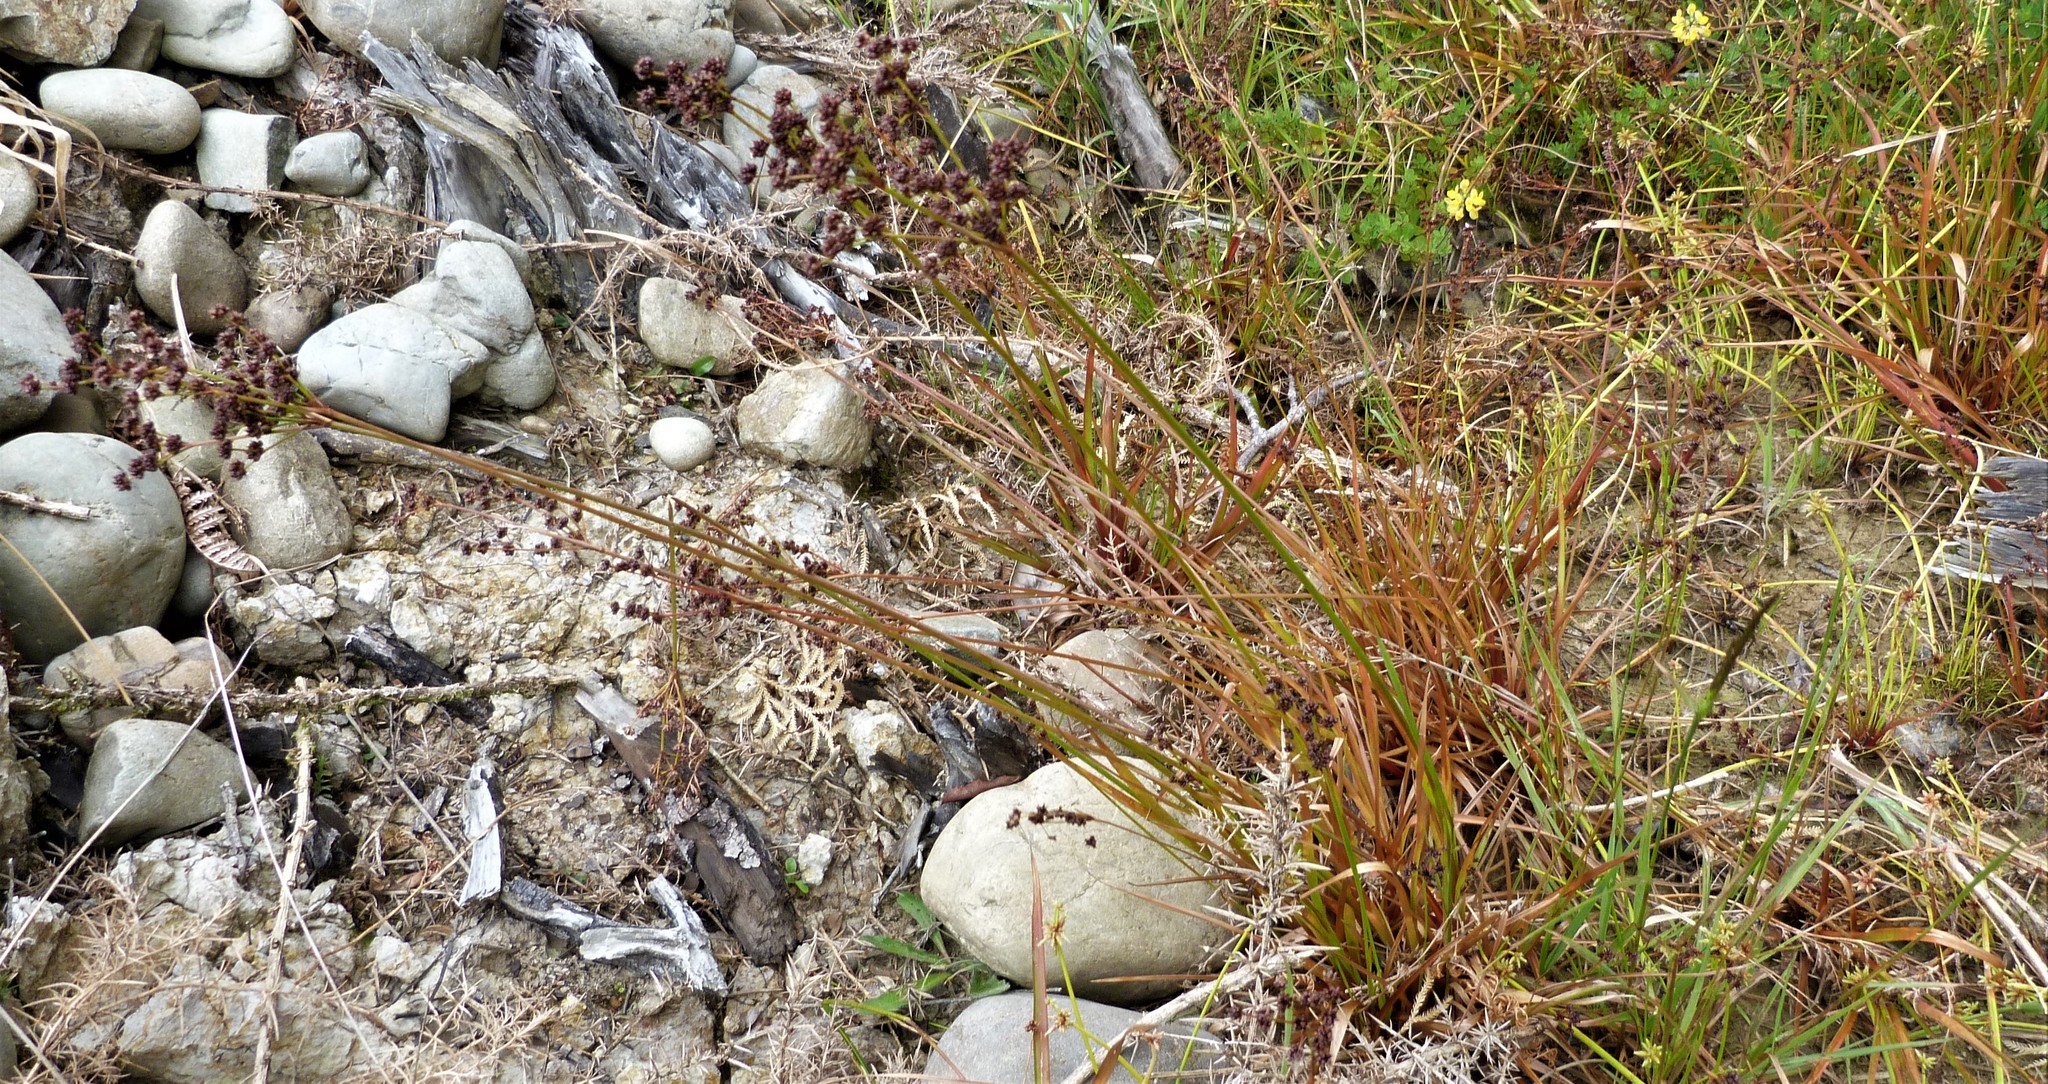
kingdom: Plantae
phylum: Tracheophyta
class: Liliopsida
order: Poales
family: Juncaceae
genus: Juncus
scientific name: Juncus planifolius
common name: Broadleaf rush
